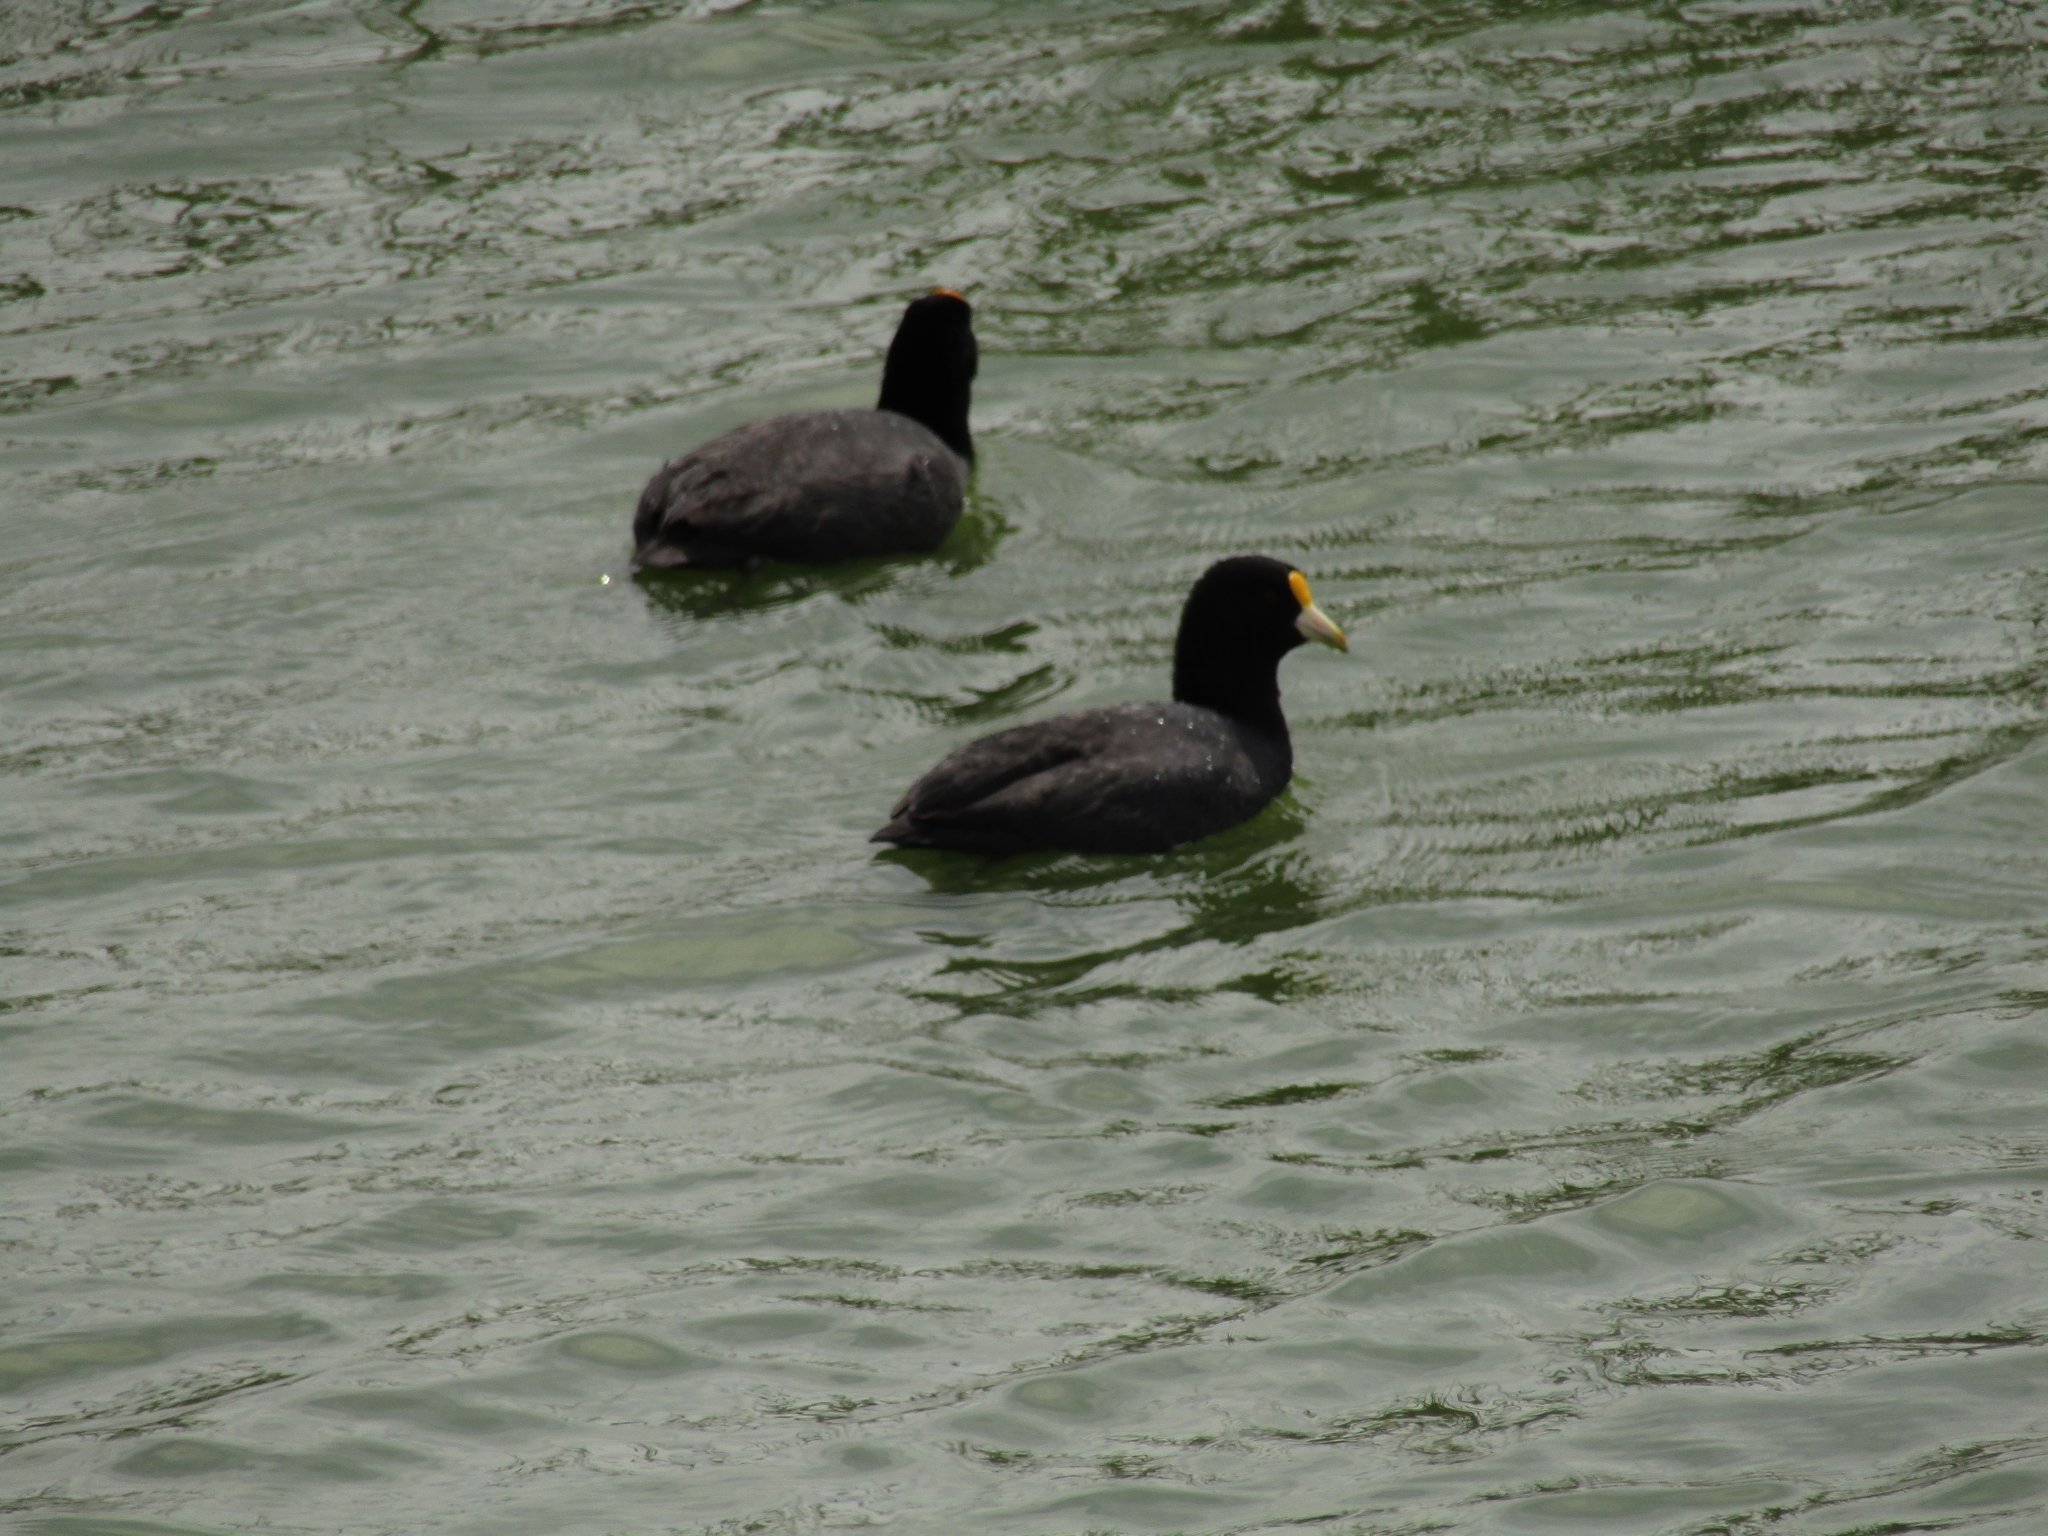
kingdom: Animalia
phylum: Chordata
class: Aves
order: Gruiformes
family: Rallidae
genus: Fulica
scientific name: Fulica leucoptera
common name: White-winged coot
